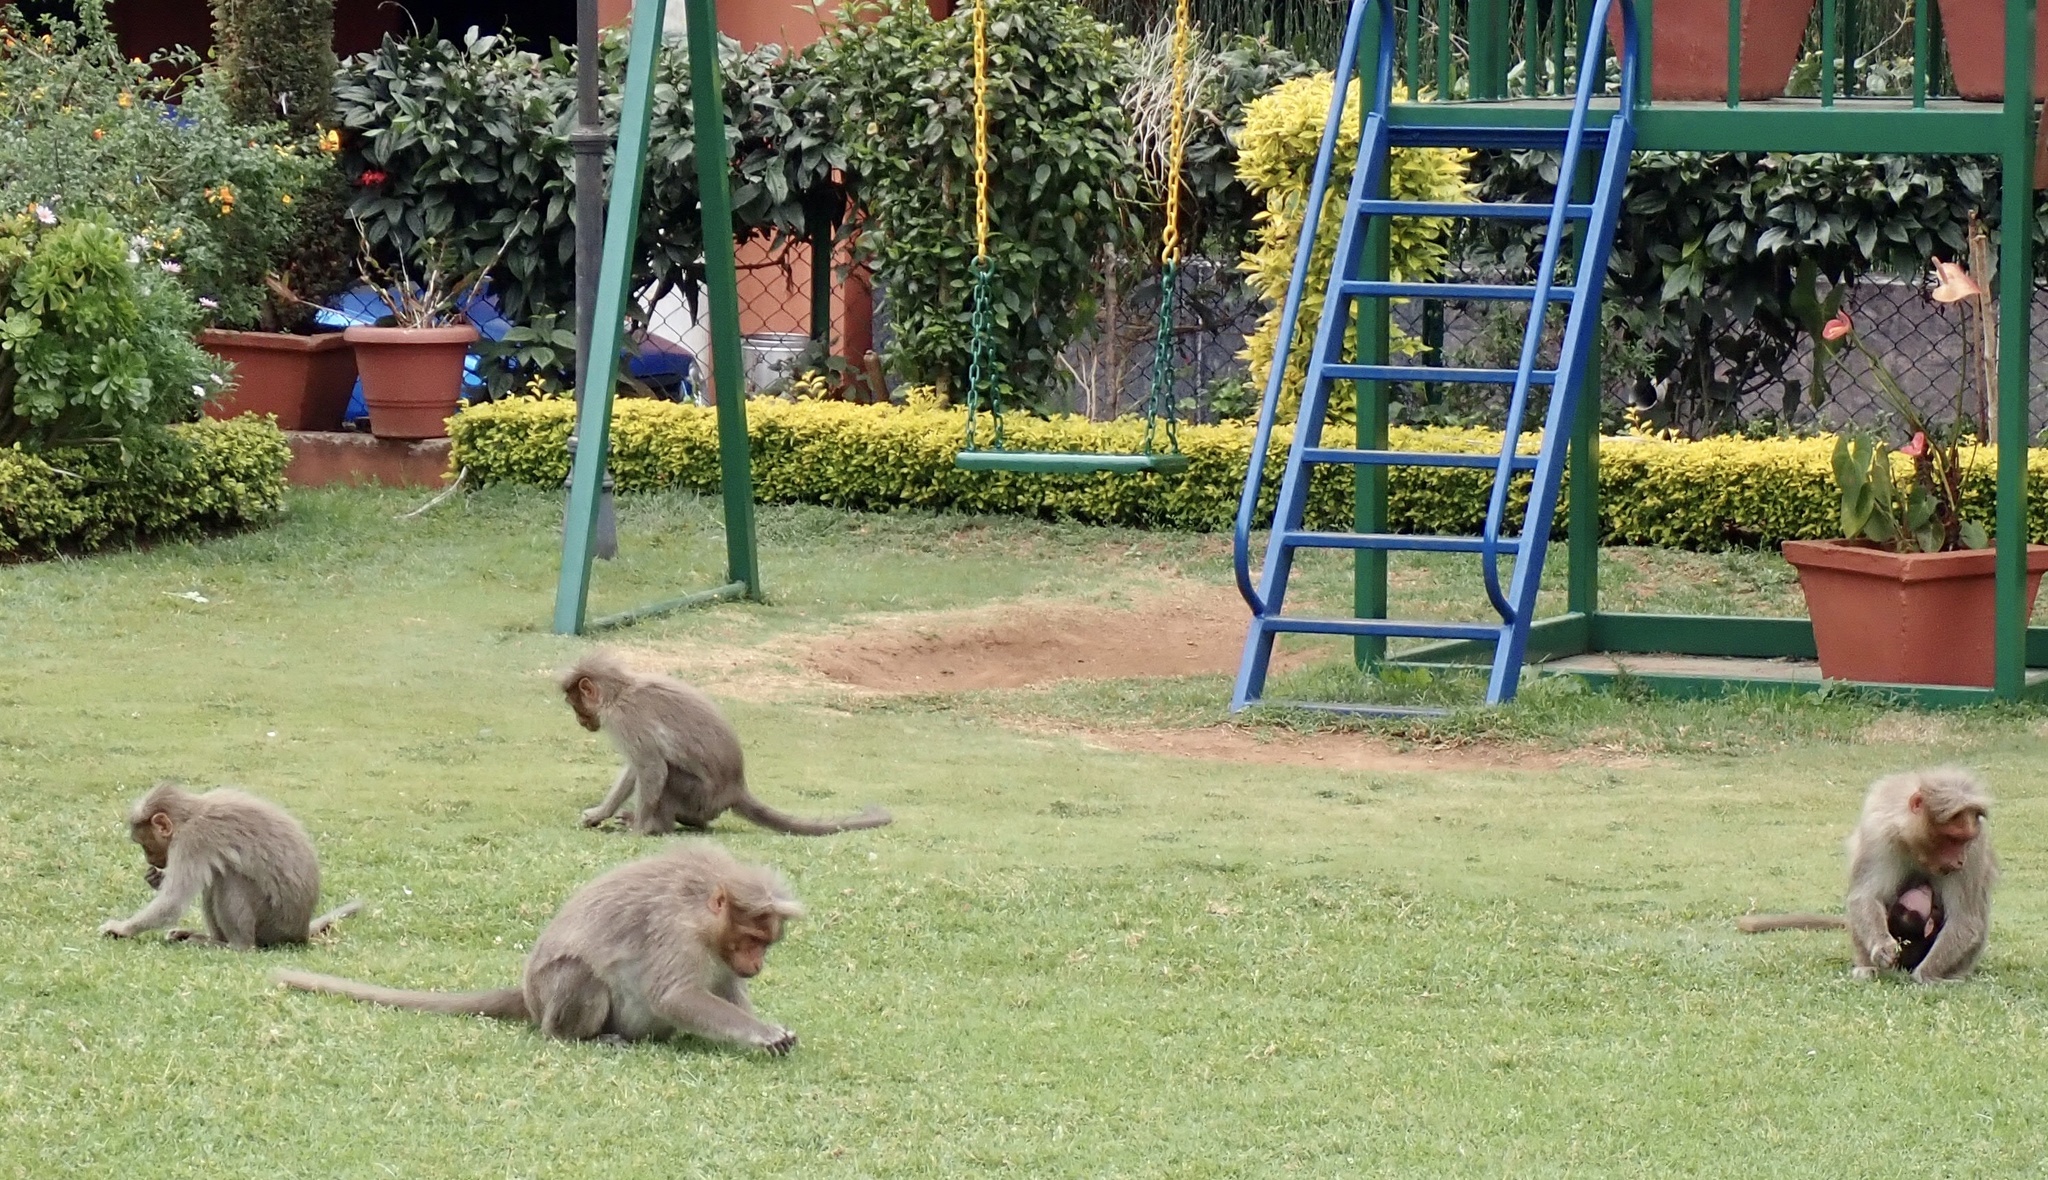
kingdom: Animalia
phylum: Chordata
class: Mammalia
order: Primates
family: Cercopithecidae
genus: Macaca
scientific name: Macaca radiata
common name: Bonnet macaque
